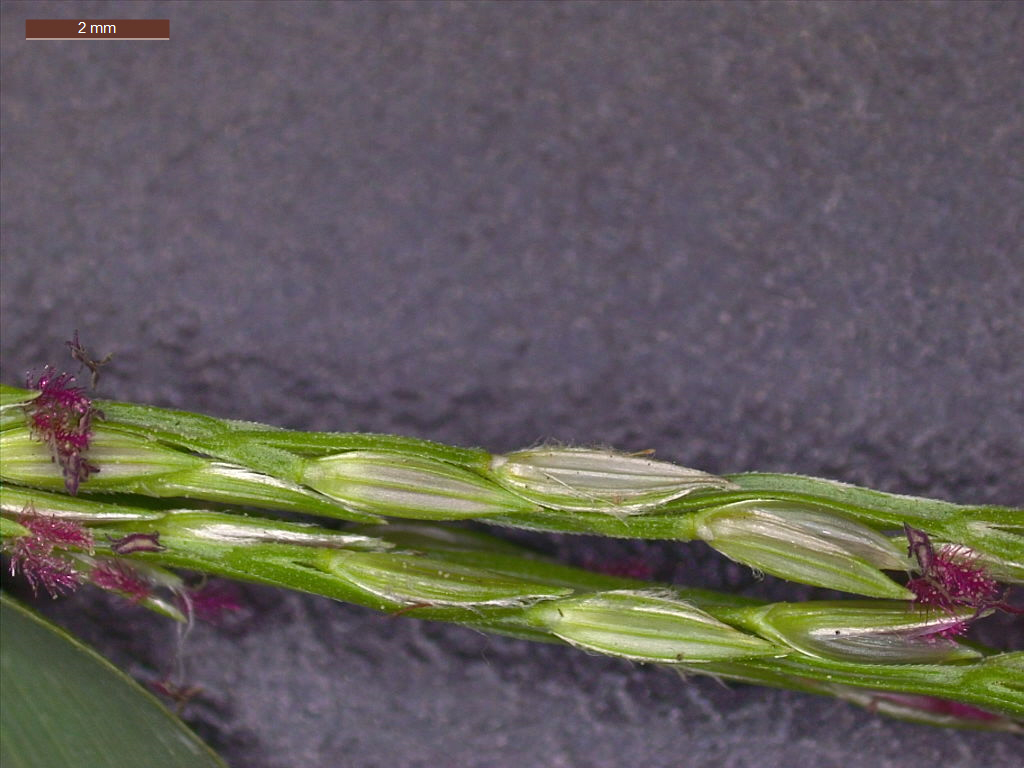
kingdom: Plantae
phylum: Tracheophyta
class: Liliopsida
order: Poales
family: Poaceae
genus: Digitaria
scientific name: Digitaria ciliaris
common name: Tropical finger-grass
